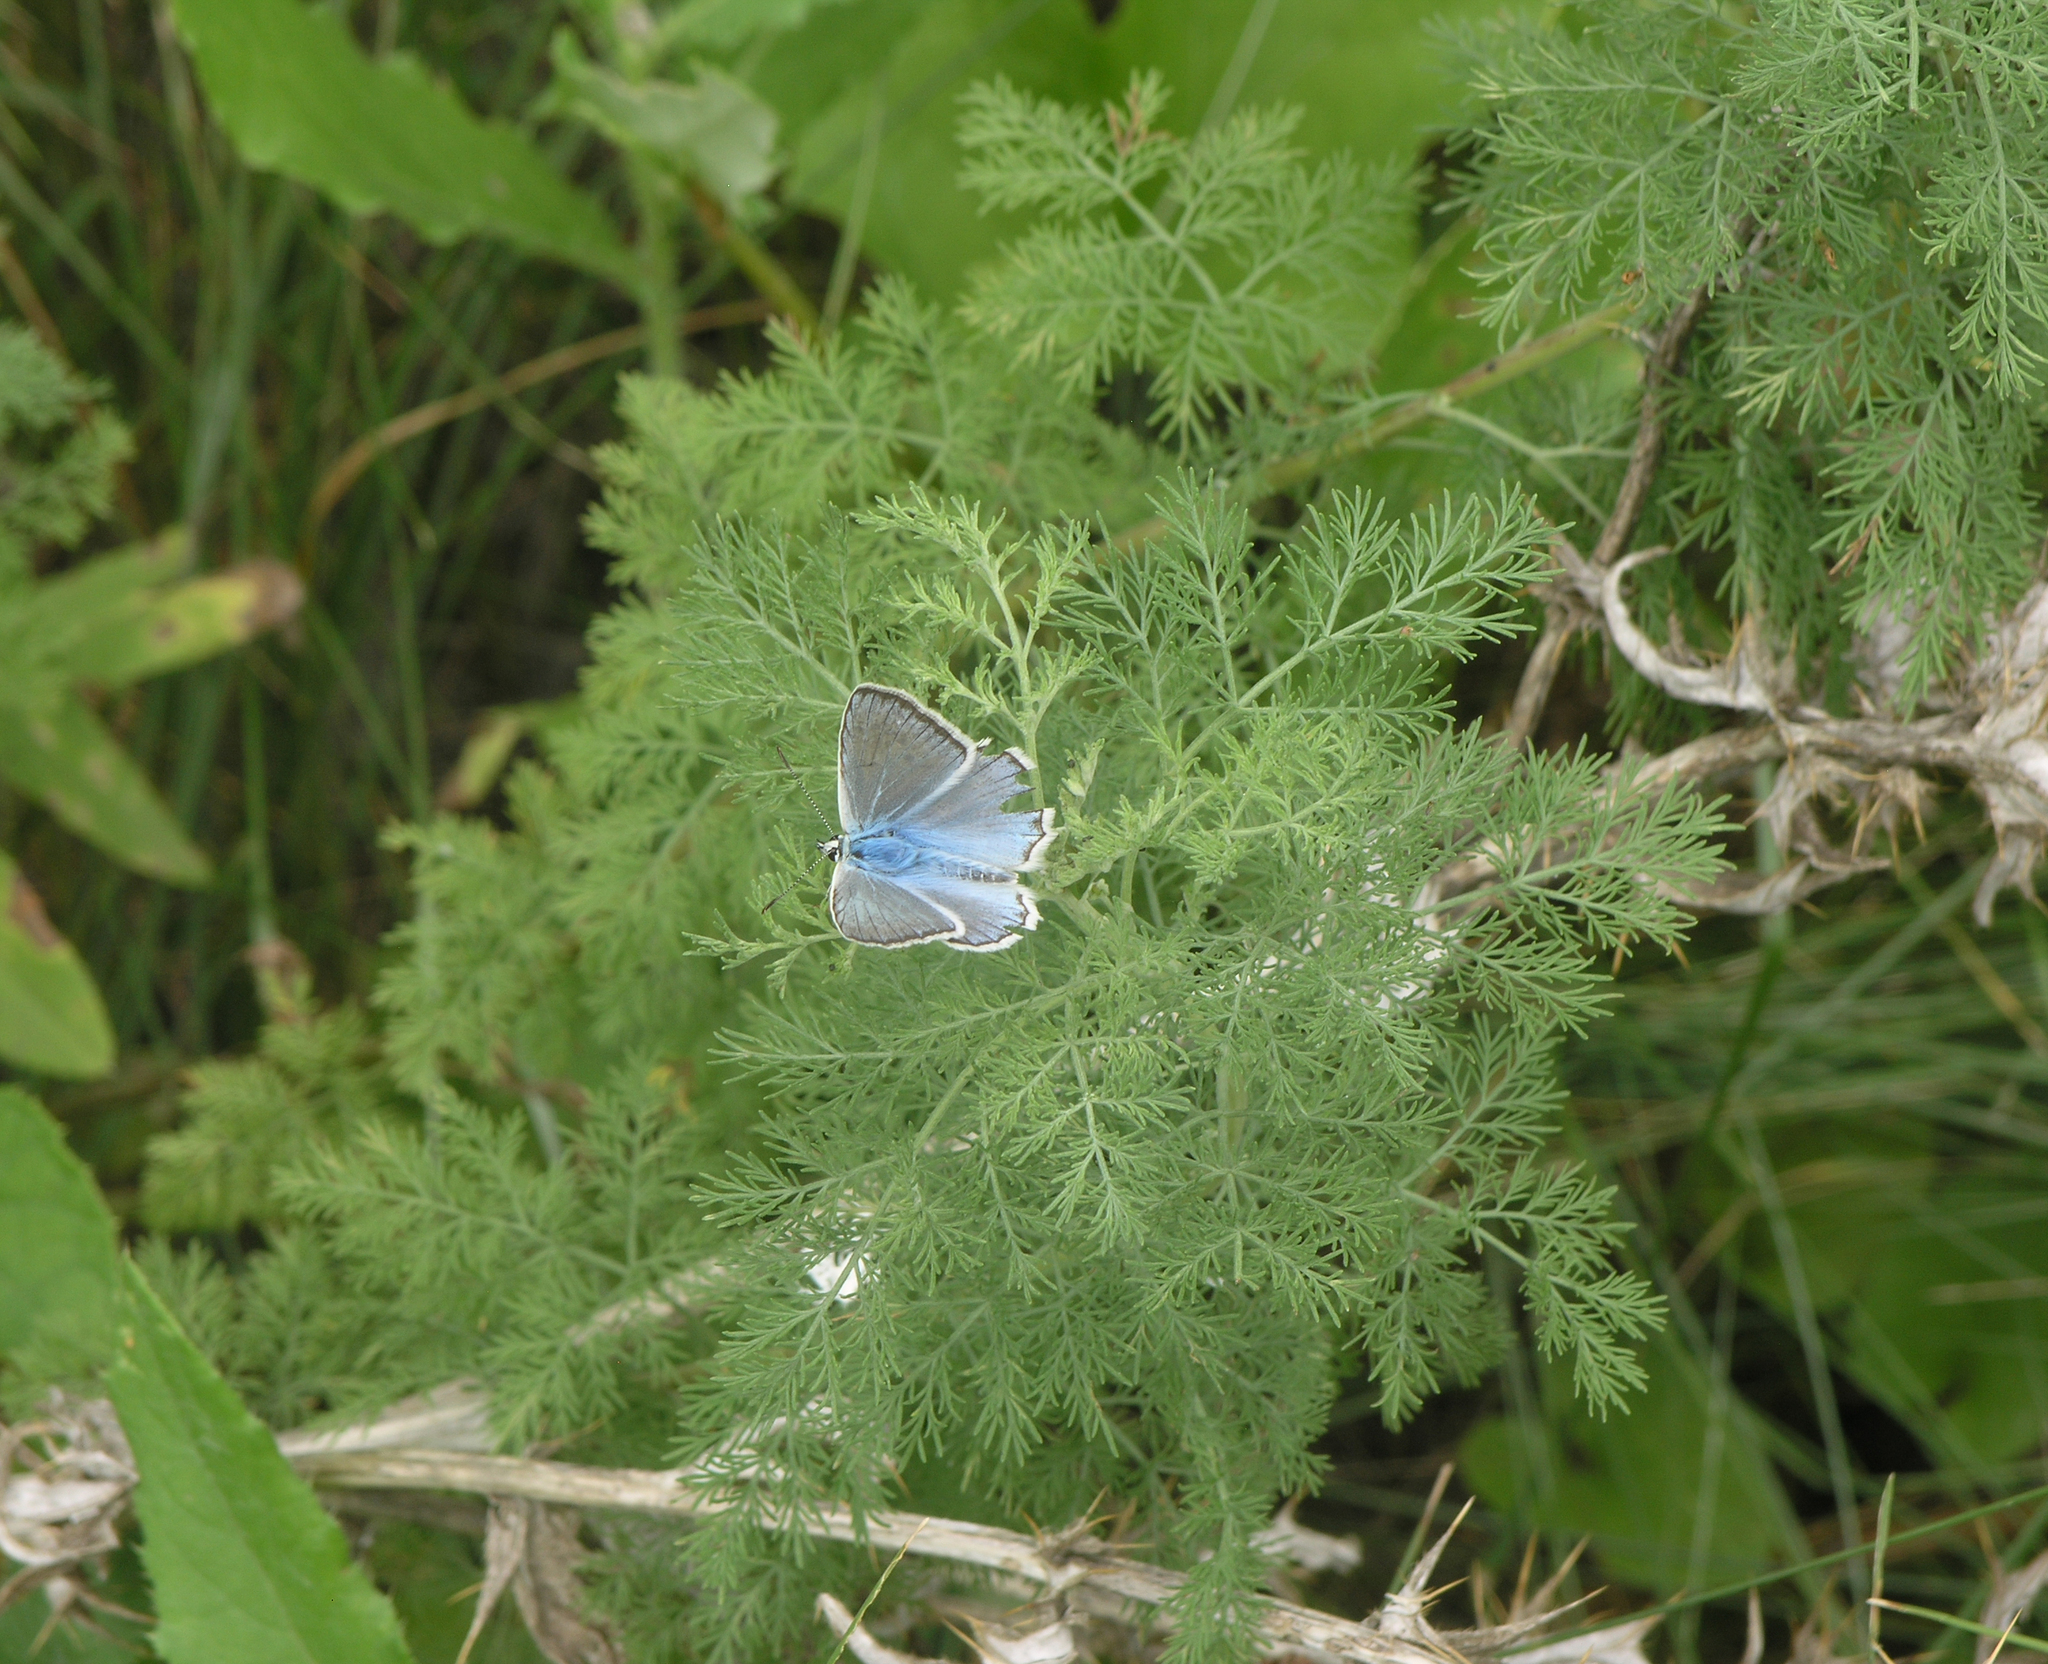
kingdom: Plantae
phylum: Tracheophyta
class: Magnoliopsida
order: Asterales
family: Asteraceae
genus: Artemisia
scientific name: Artemisia abrotanum
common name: Southernwood
